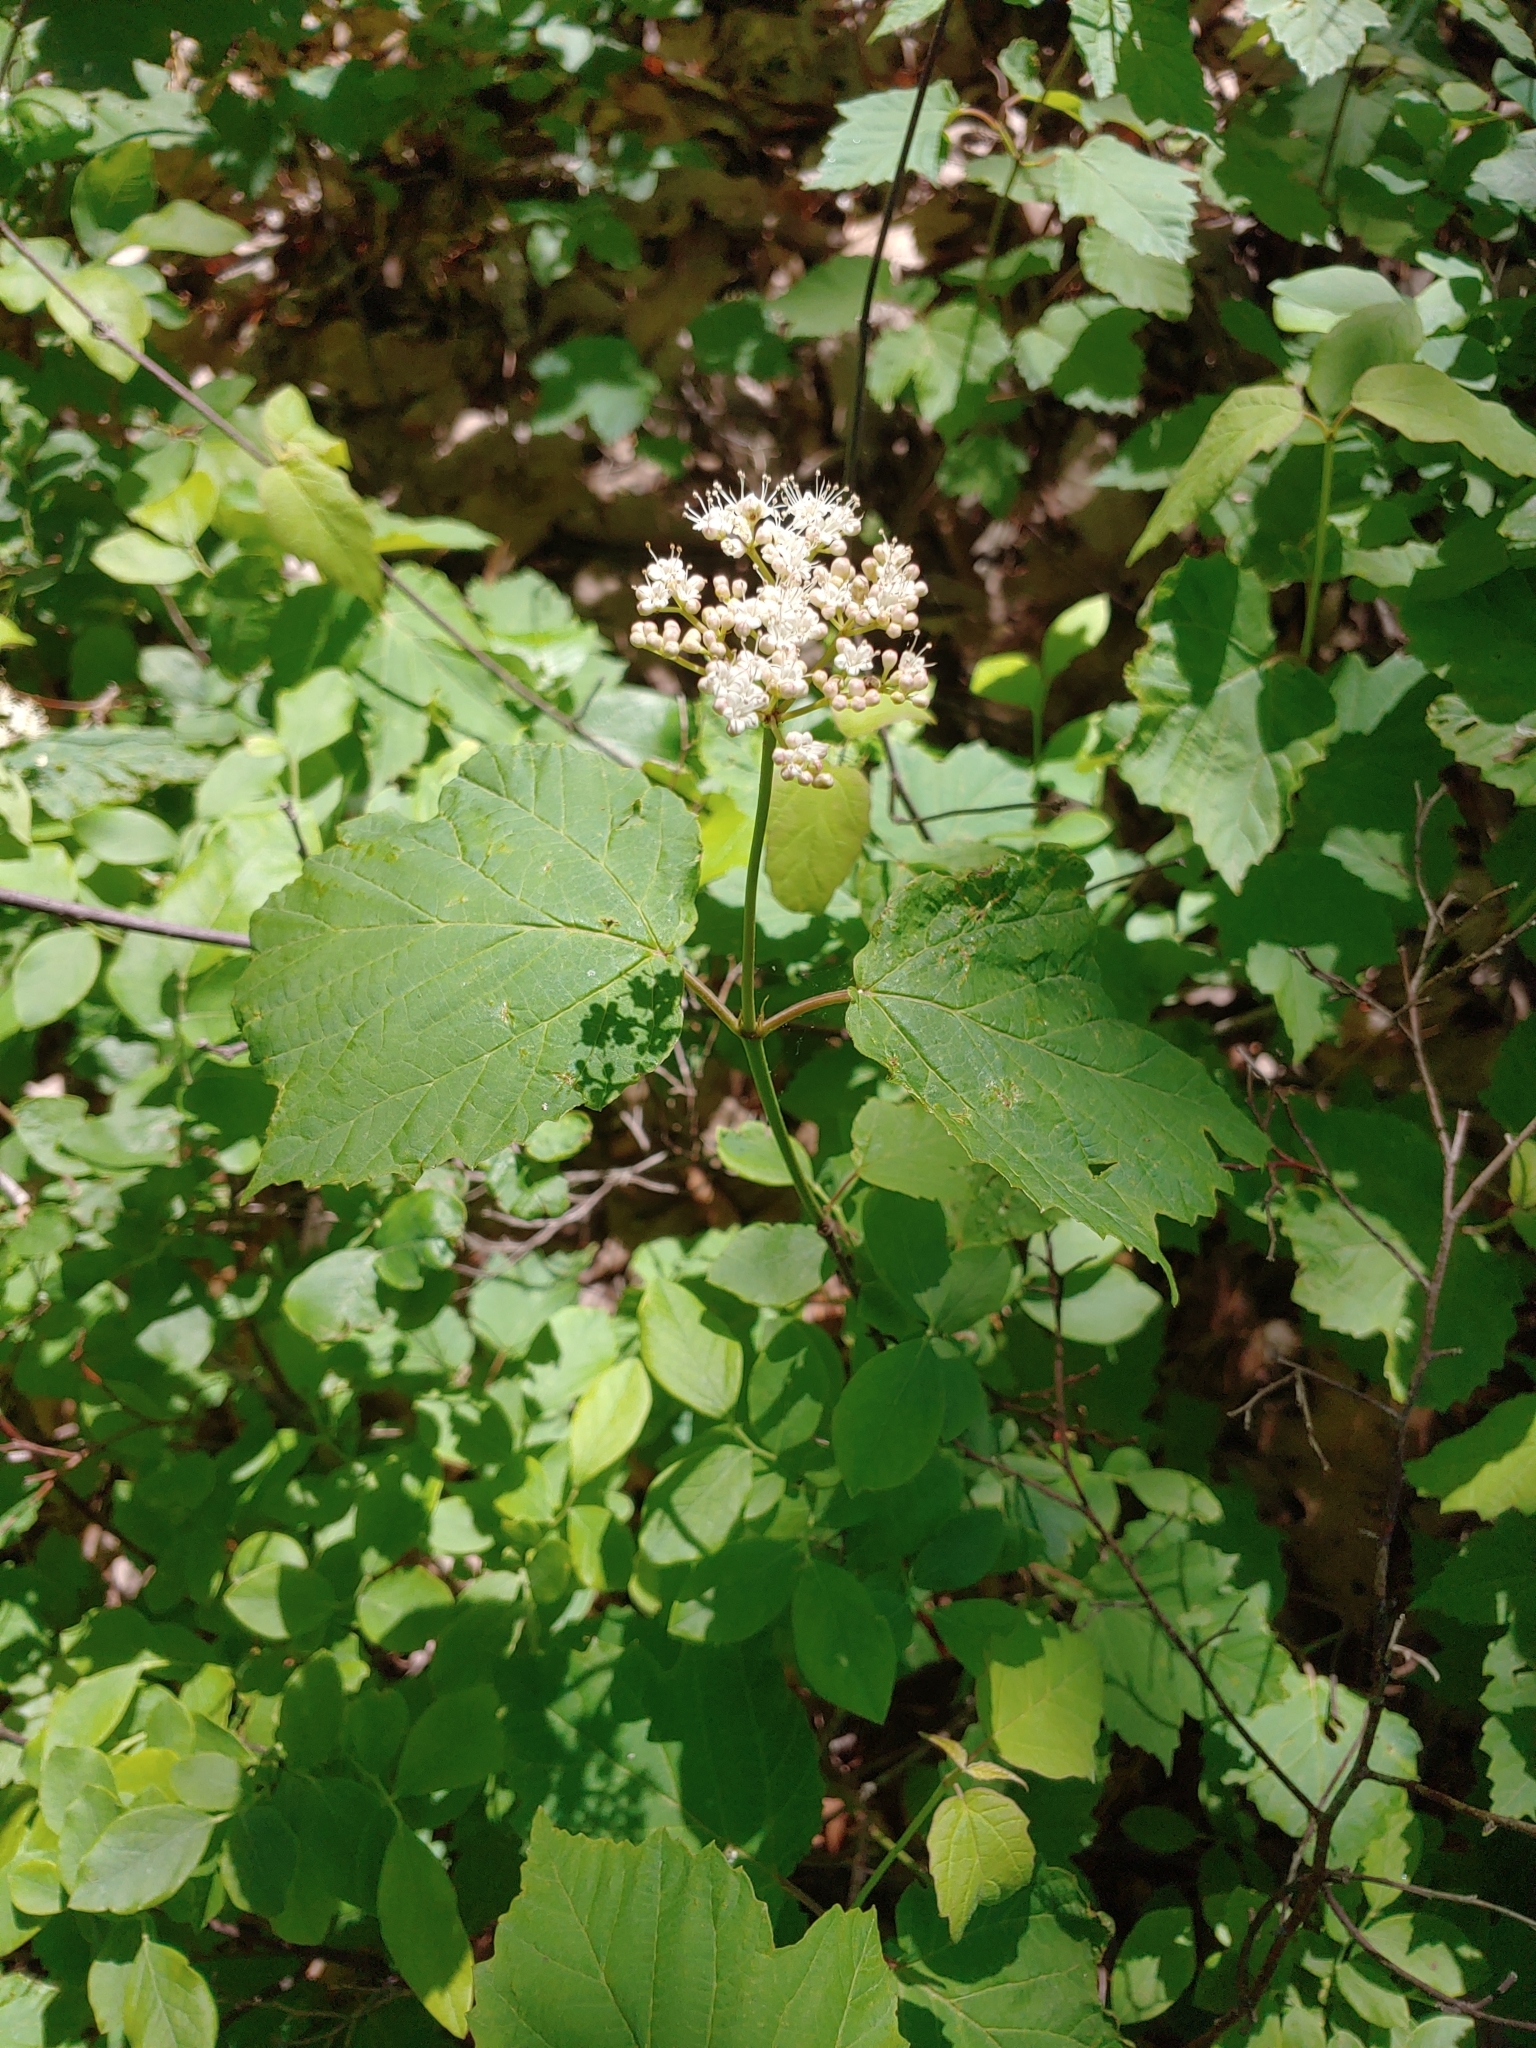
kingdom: Plantae
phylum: Tracheophyta
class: Magnoliopsida
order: Dipsacales
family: Viburnaceae
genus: Viburnum
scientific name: Viburnum acerifolium
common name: Dockmackie
